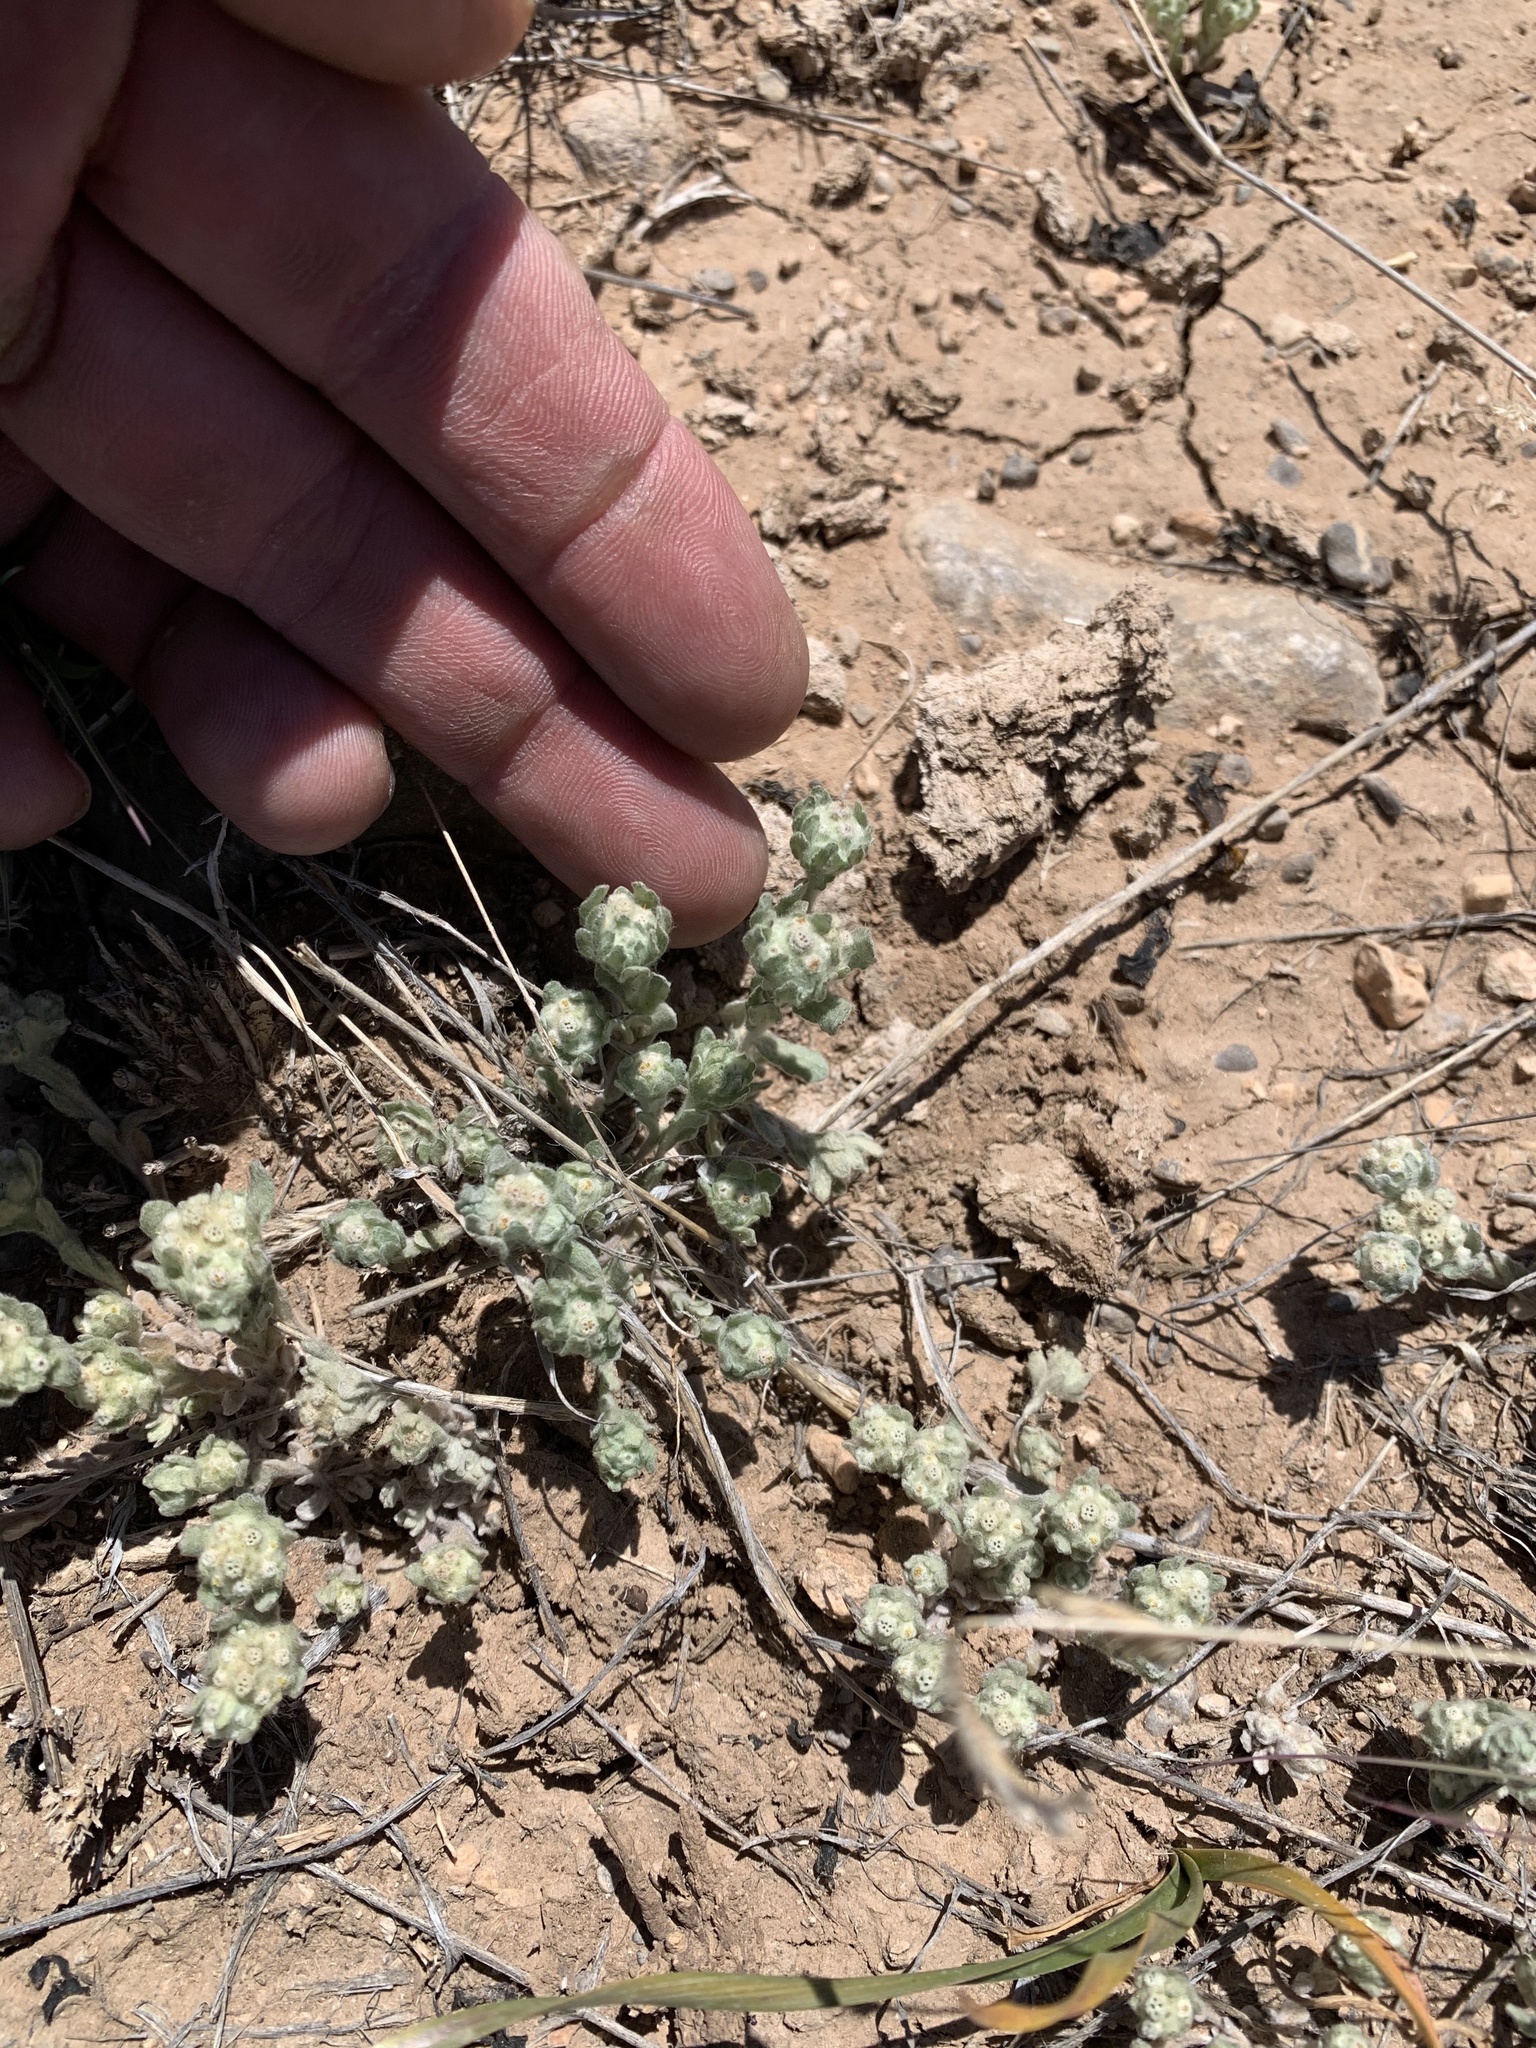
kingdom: Plantae
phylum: Tracheophyta
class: Magnoliopsida
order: Asterales
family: Asteraceae
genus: Diaperia
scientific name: Diaperia verna
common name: Many-stem rabbit-tobacco
